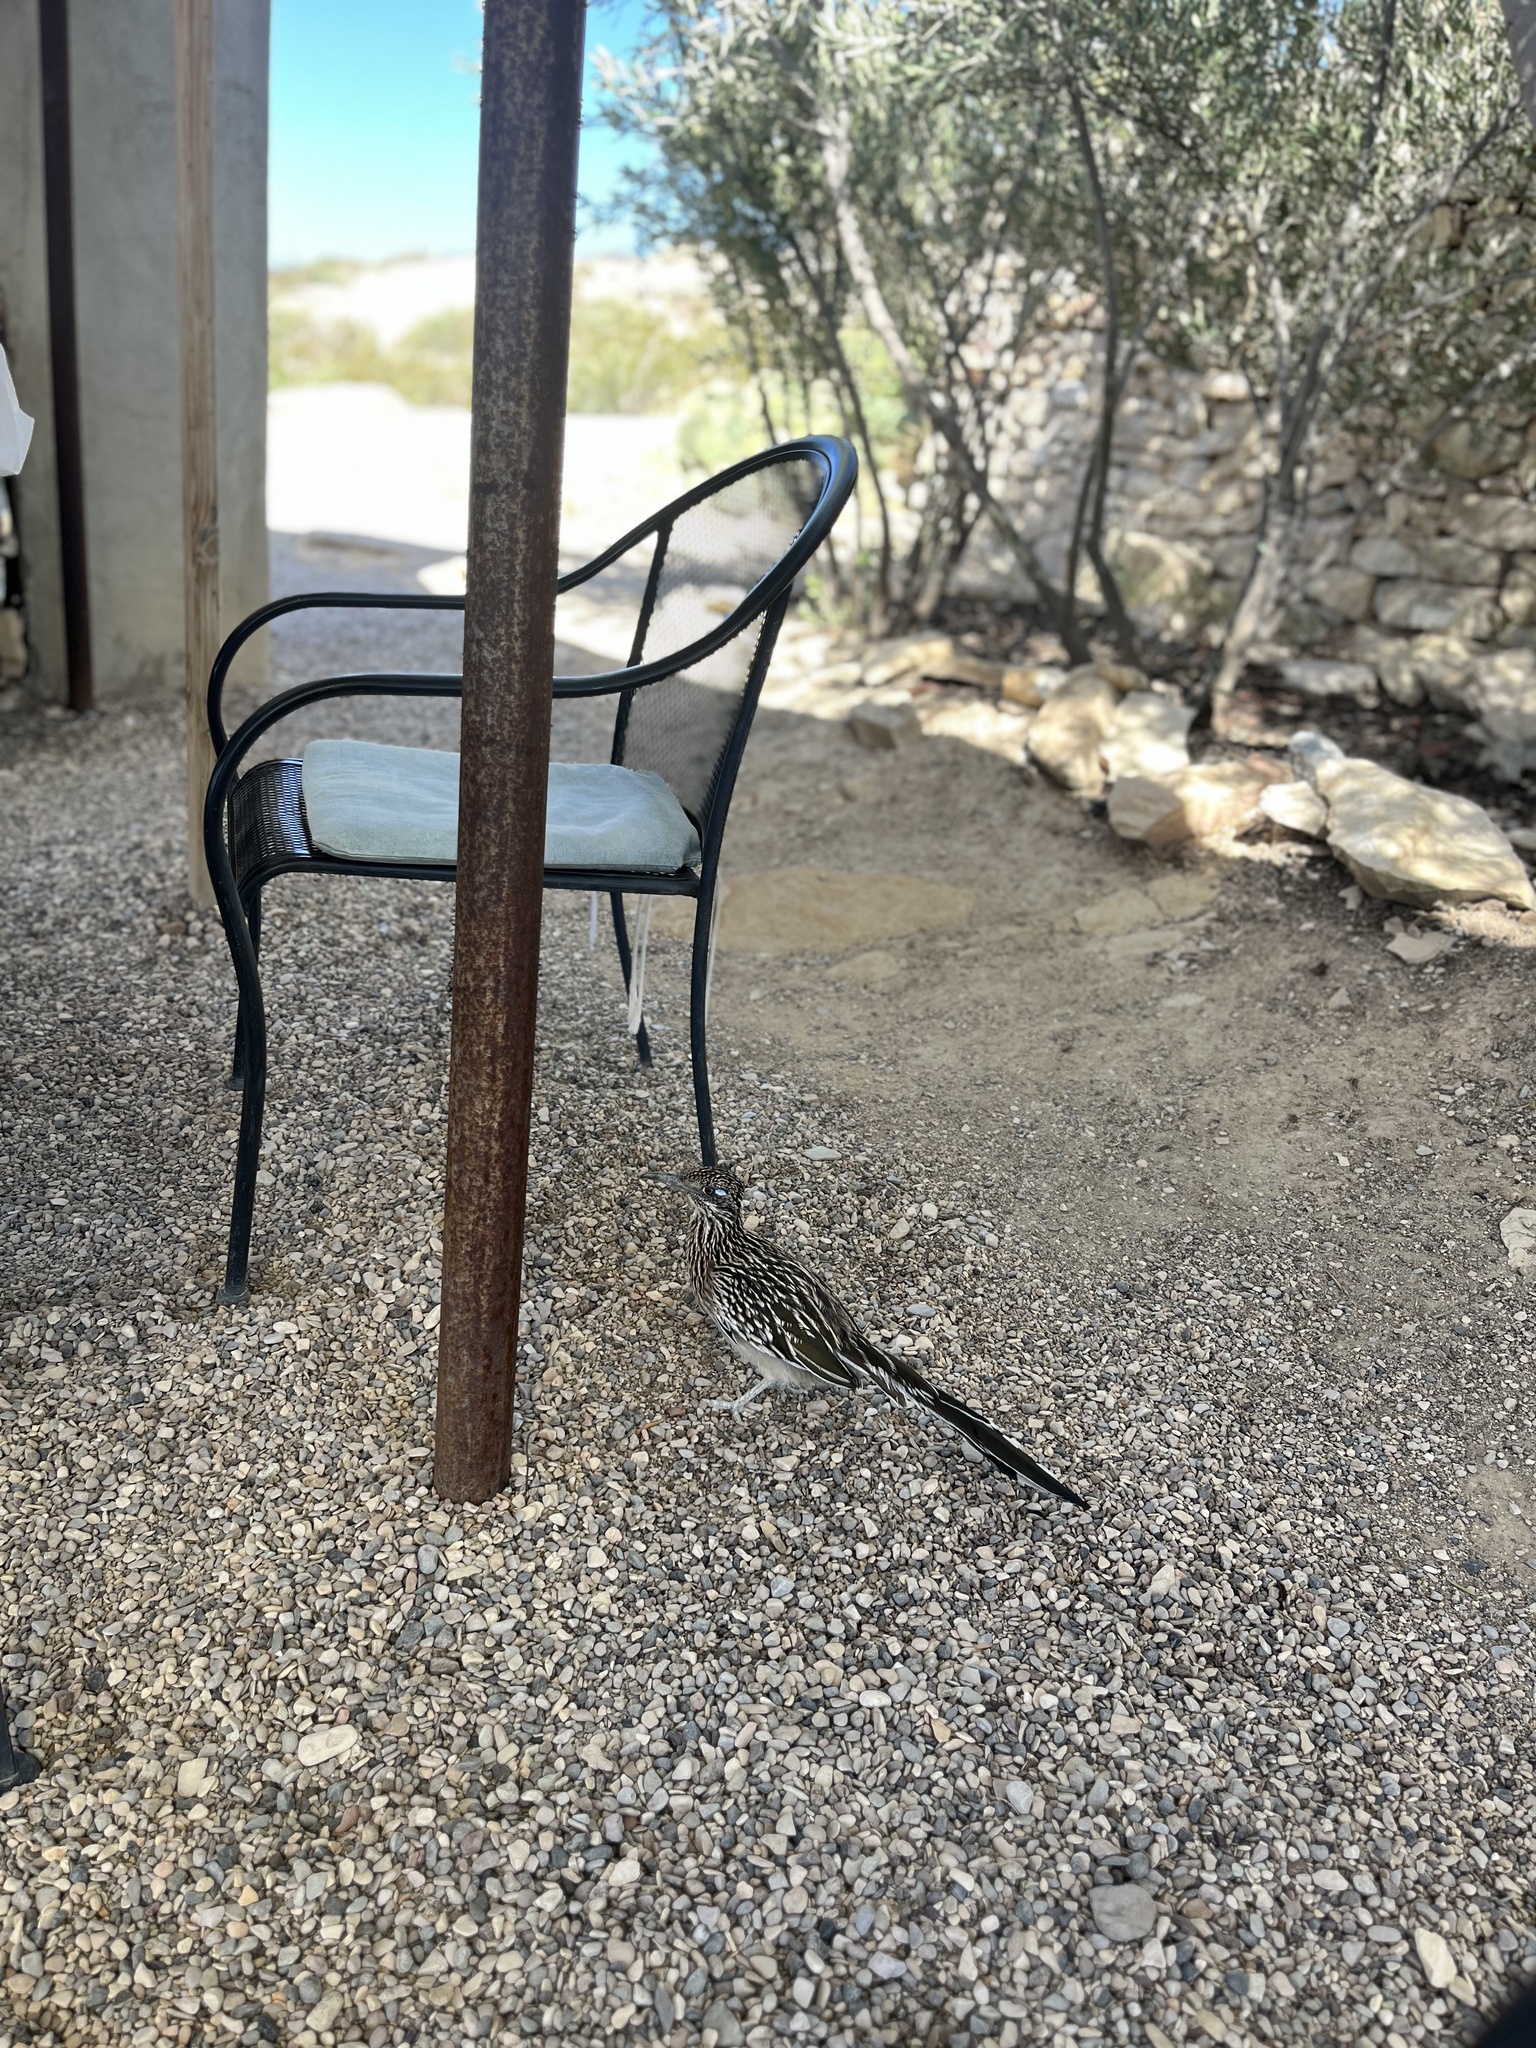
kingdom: Animalia
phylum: Chordata
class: Aves
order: Cuculiformes
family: Cuculidae
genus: Geococcyx
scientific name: Geococcyx californianus
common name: Greater roadrunner
